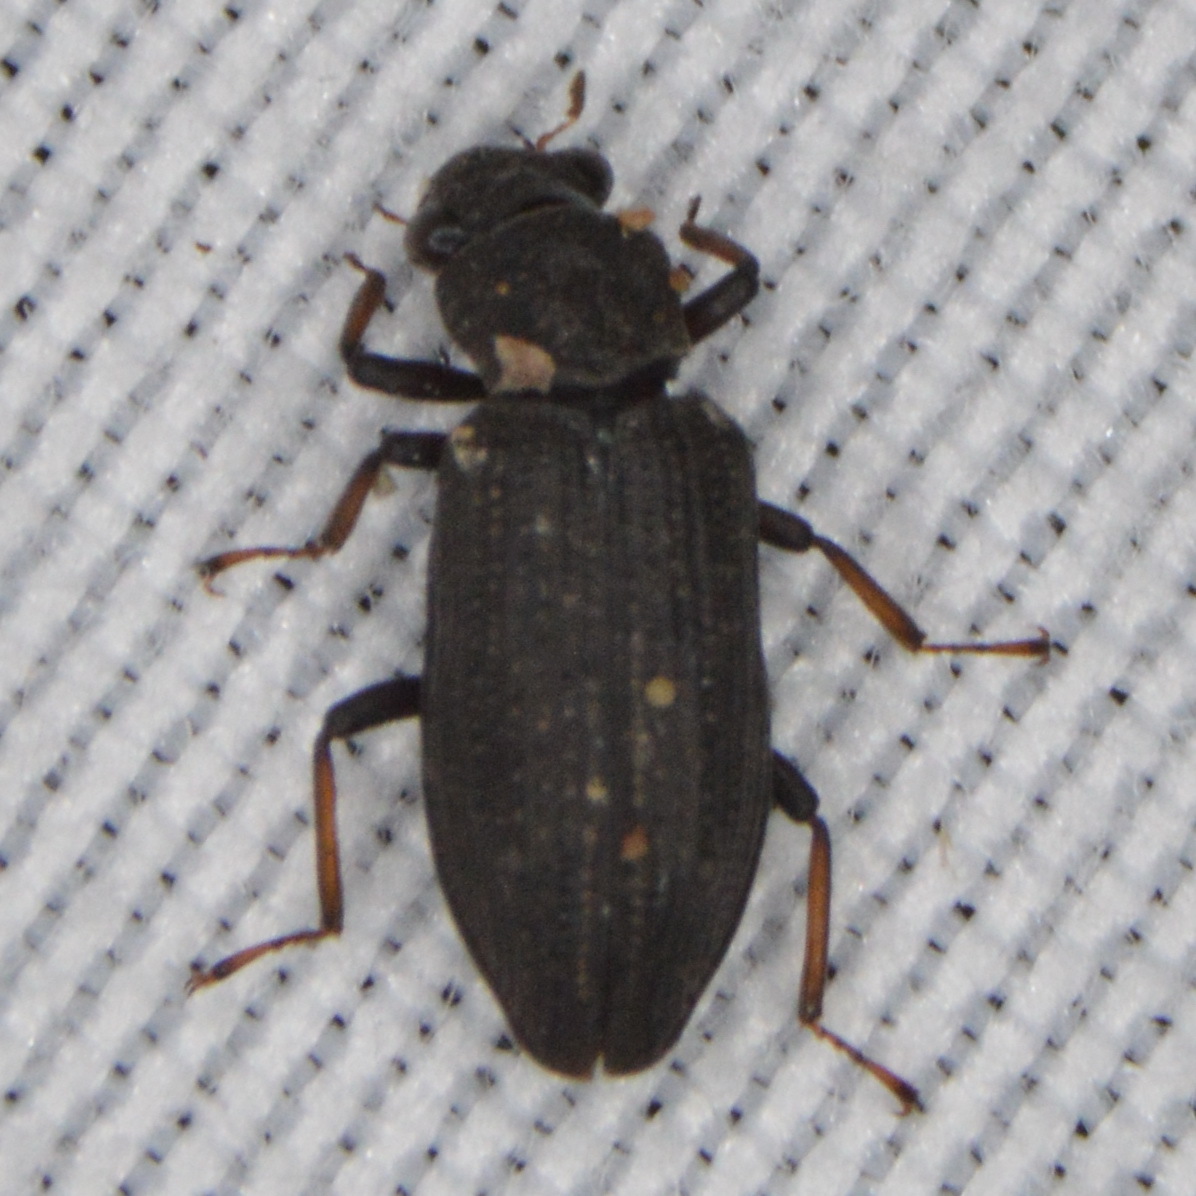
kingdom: Animalia
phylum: Arthropoda
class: Insecta
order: Coleoptera
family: Hydrochidae
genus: Hydrochus
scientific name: Hydrochus
